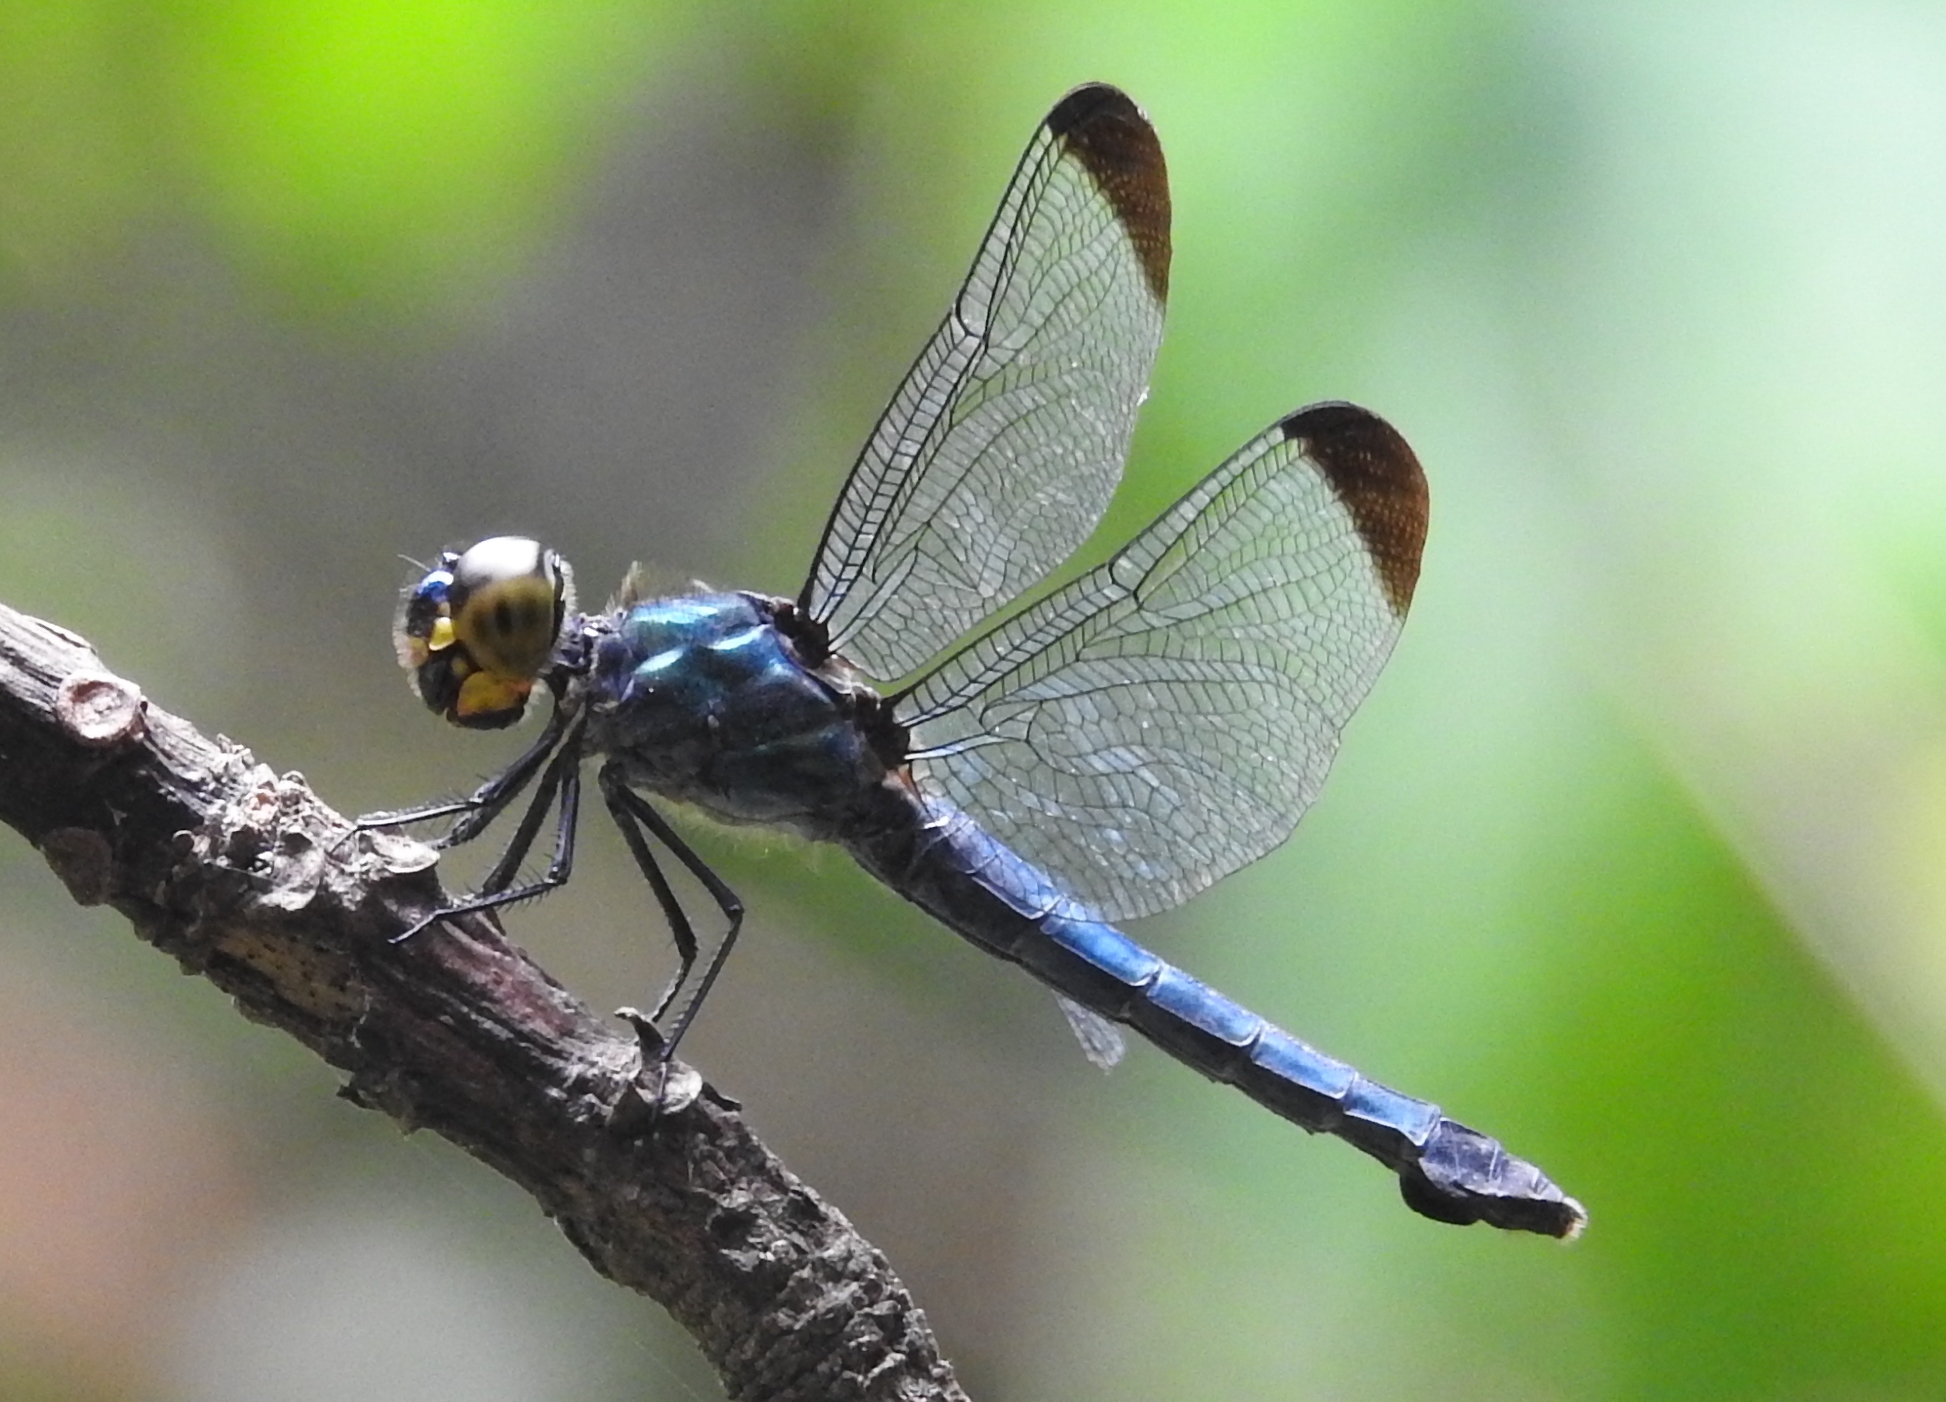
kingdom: Animalia
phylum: Arthropoda
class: Insecta
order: Odonata
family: Libellulidae
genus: Cratilla
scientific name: Cratilla metallica
